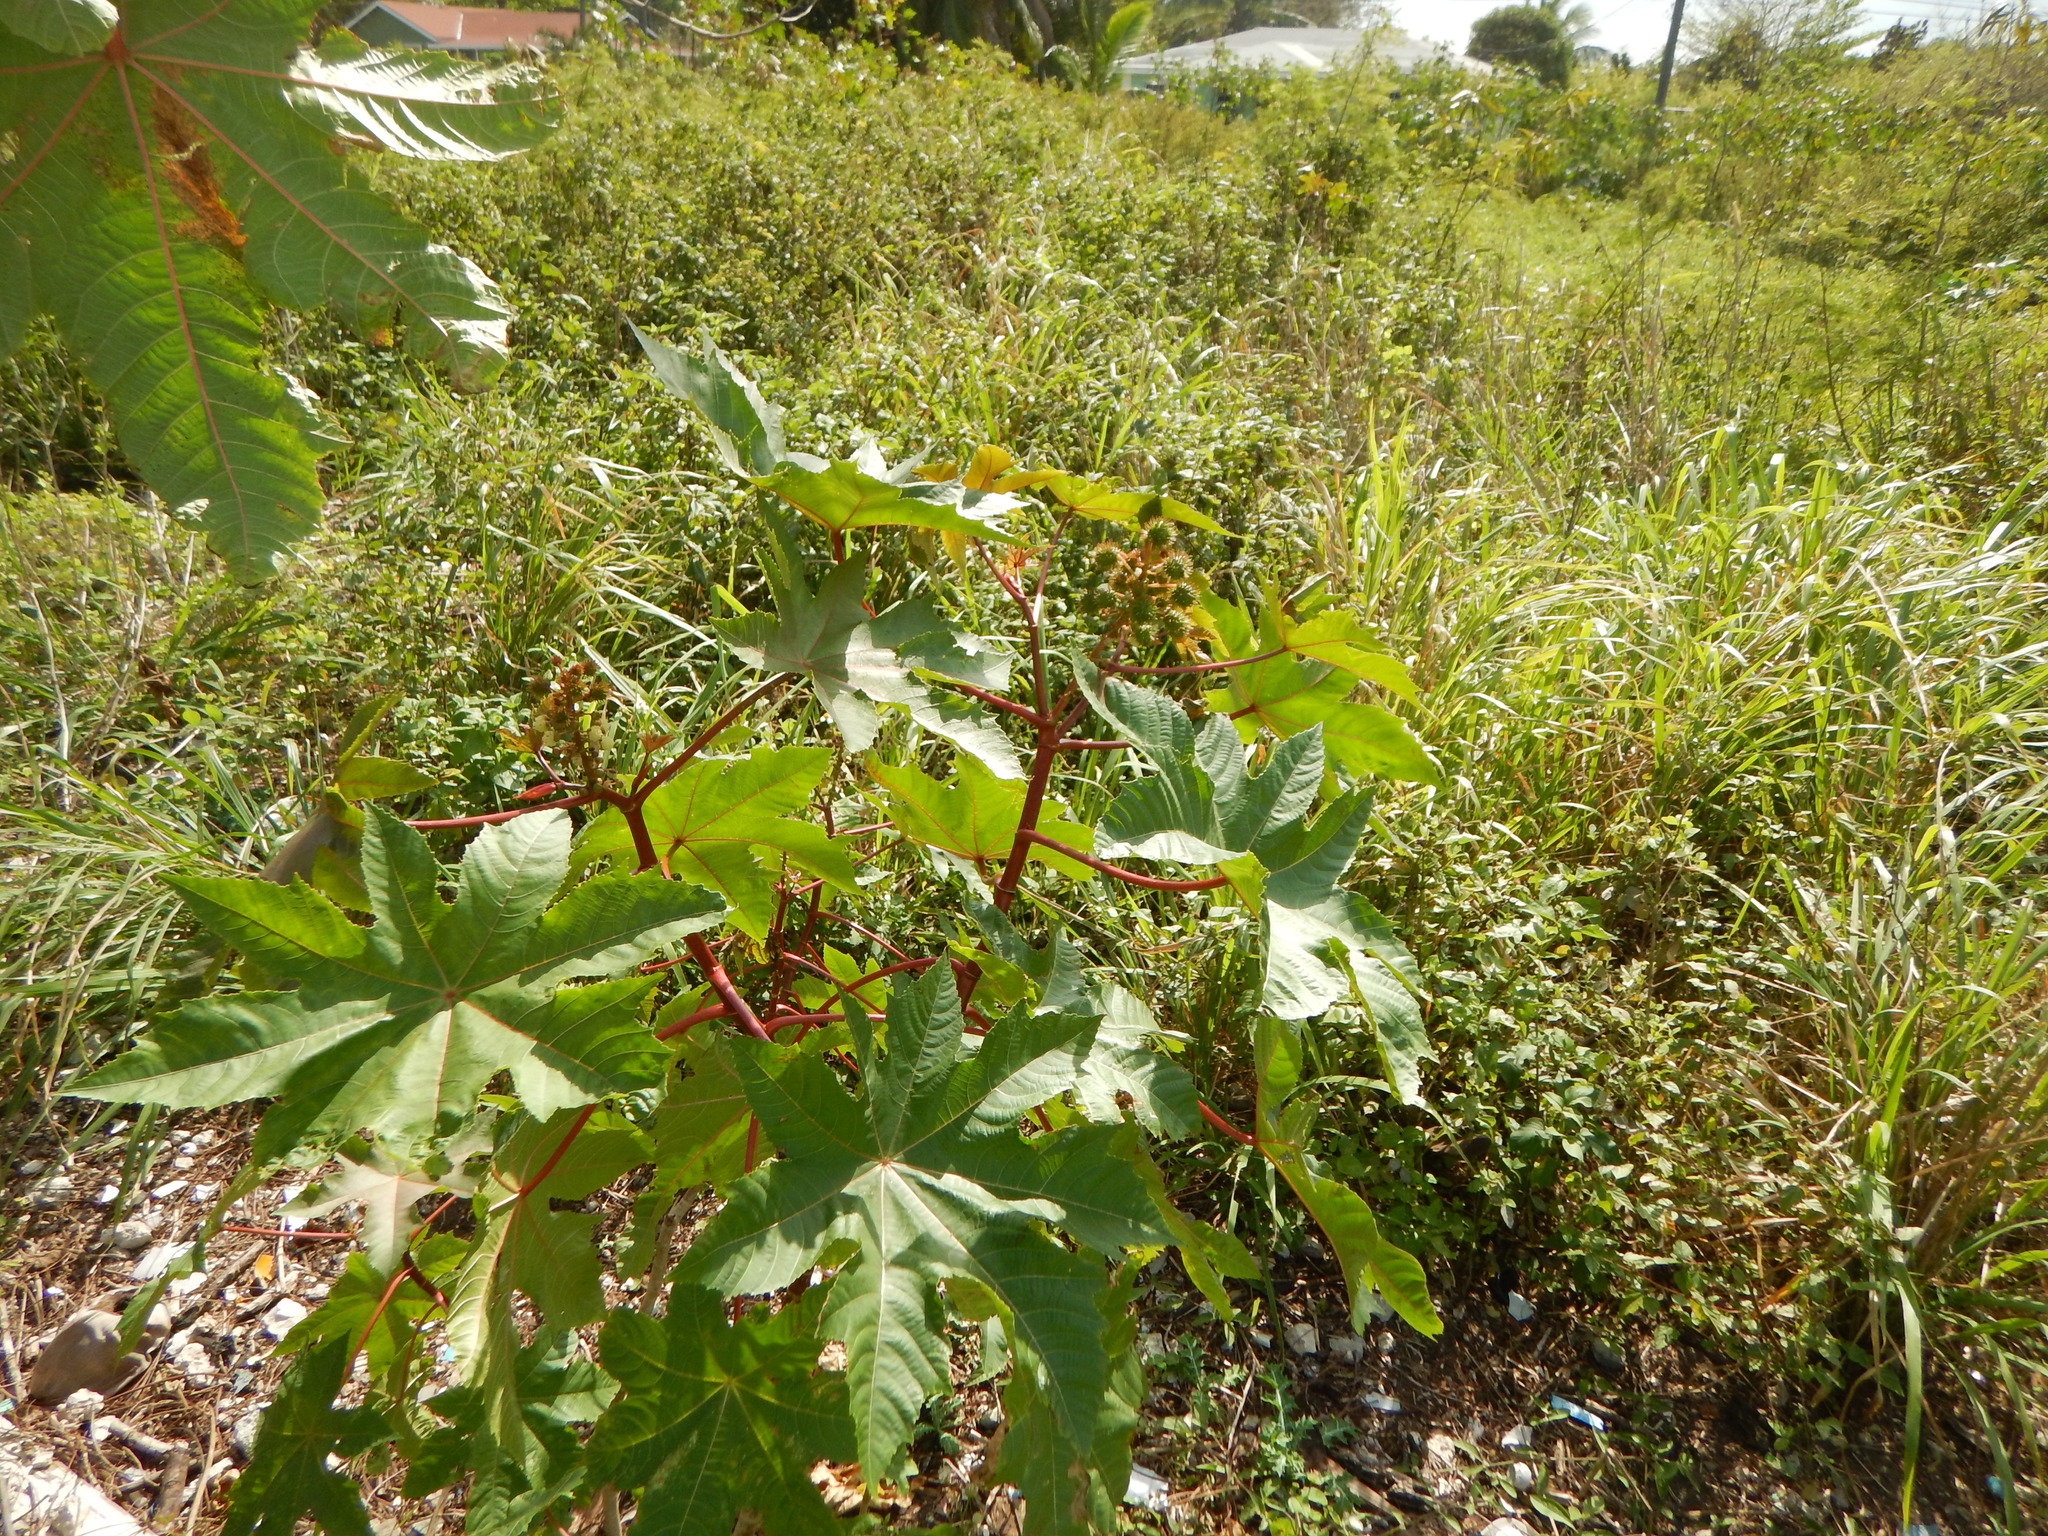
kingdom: Plantae
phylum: Tracheophyta
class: Magnoliopsida
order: Malpighiales
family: Euphorbiaceae
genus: Ricinus
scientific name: Ricinus communis
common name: Castor-oil-plant
